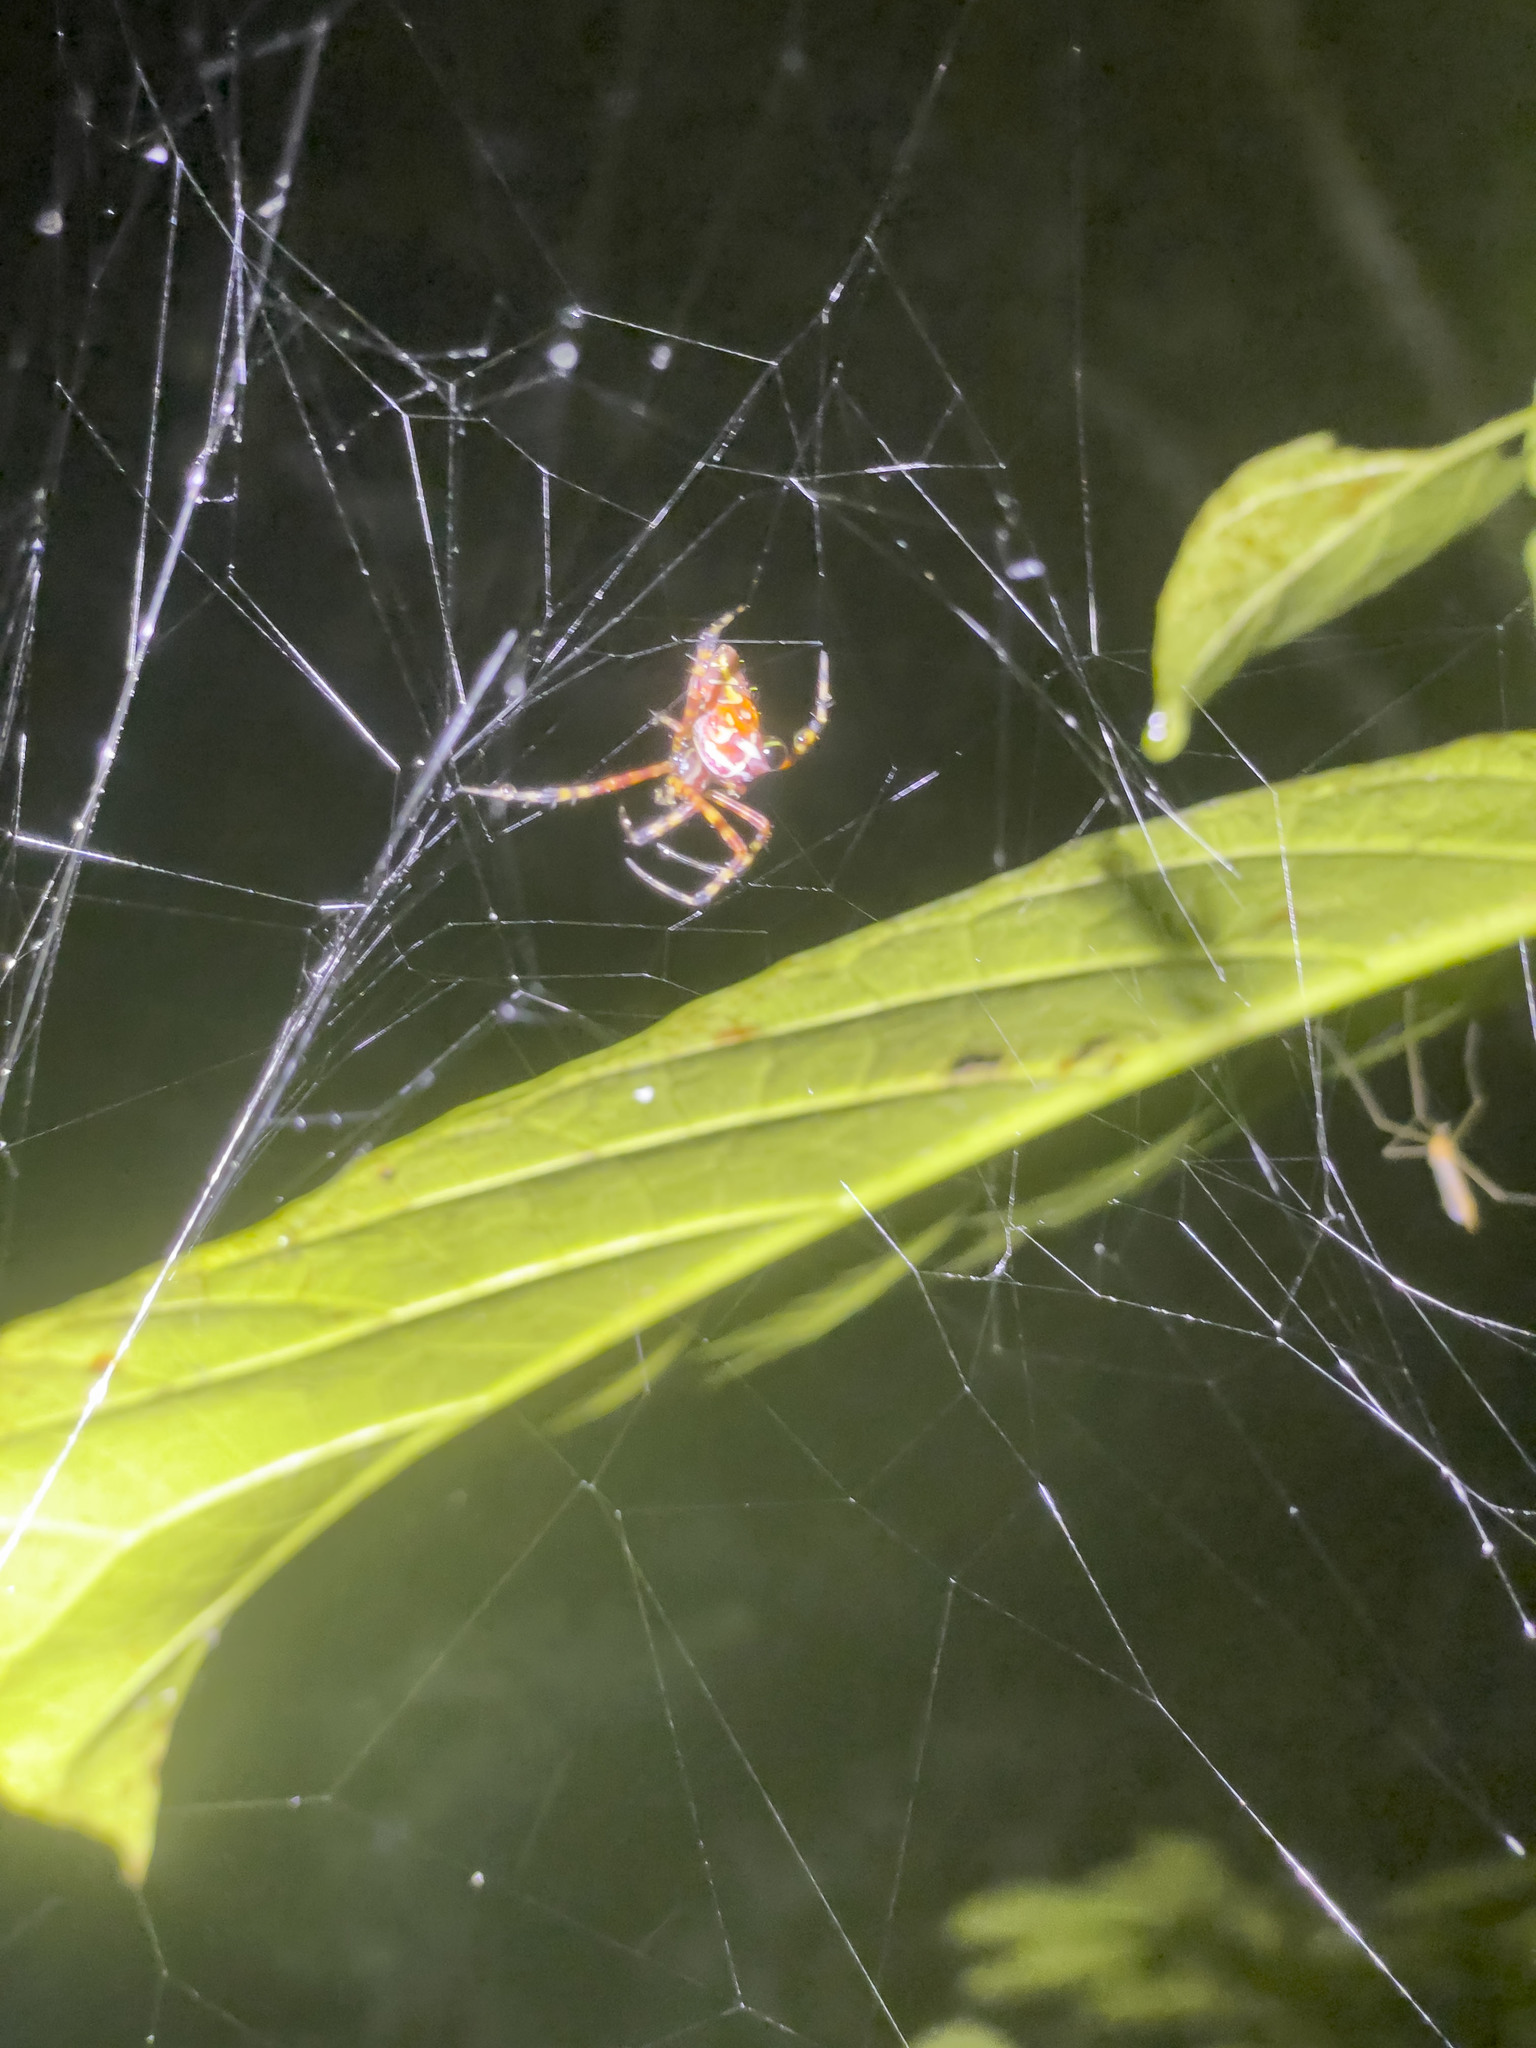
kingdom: Animalia
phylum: Arthropoda
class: Arachnida
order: Araneae
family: Araneidae
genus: Argiope
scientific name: Argiope ocula
